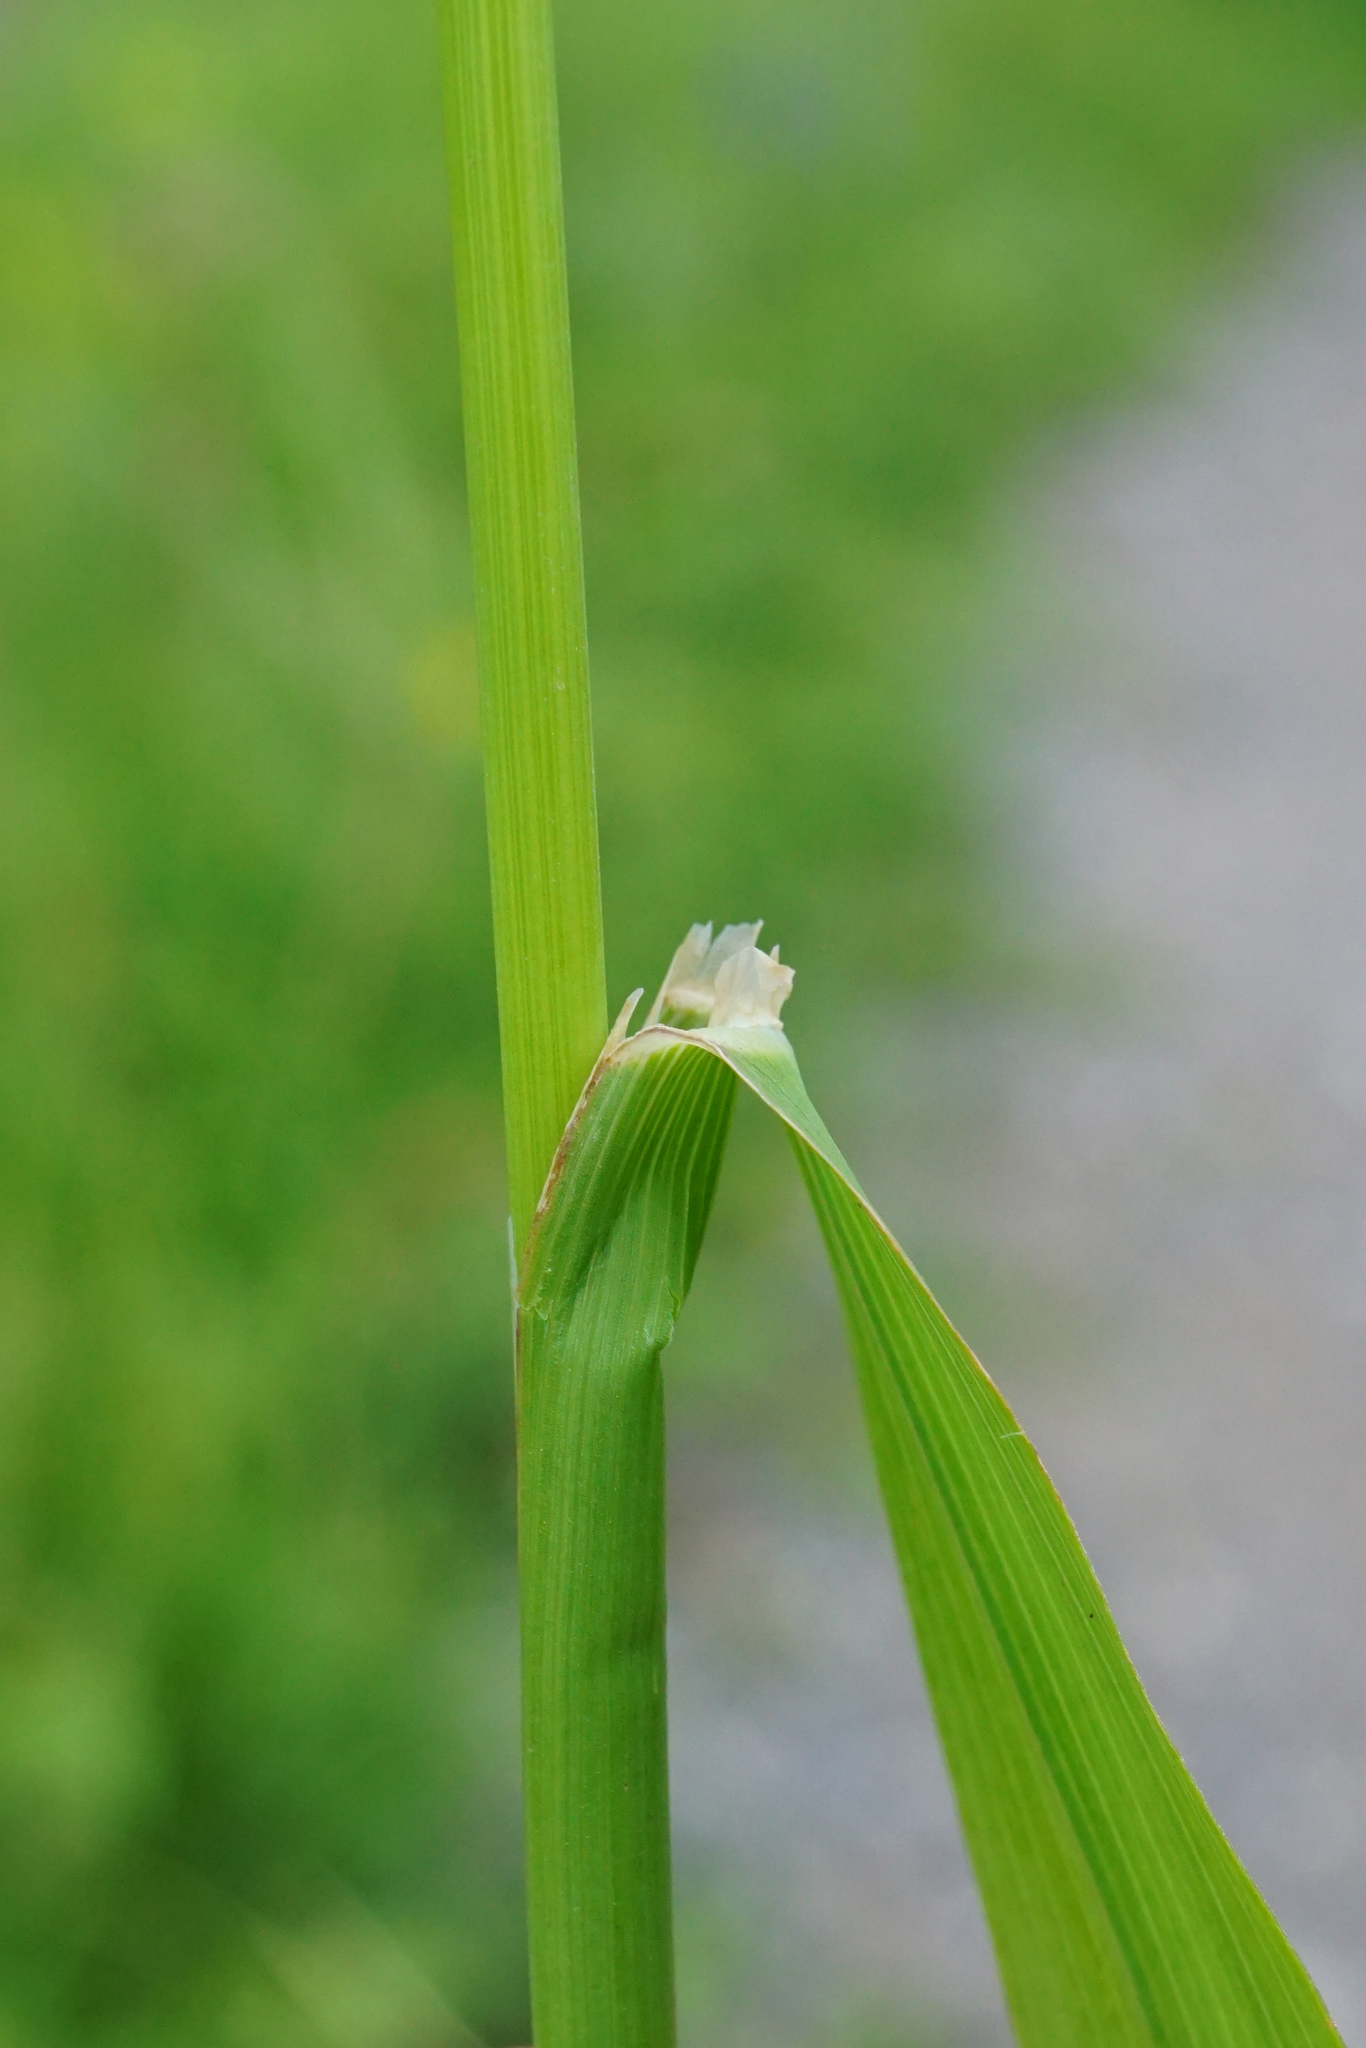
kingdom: Plantae
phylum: Tracheophyta
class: Liliopsida
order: Poales
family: Poaceae
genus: Phleum
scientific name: Phleum pratense
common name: Timothy grass
